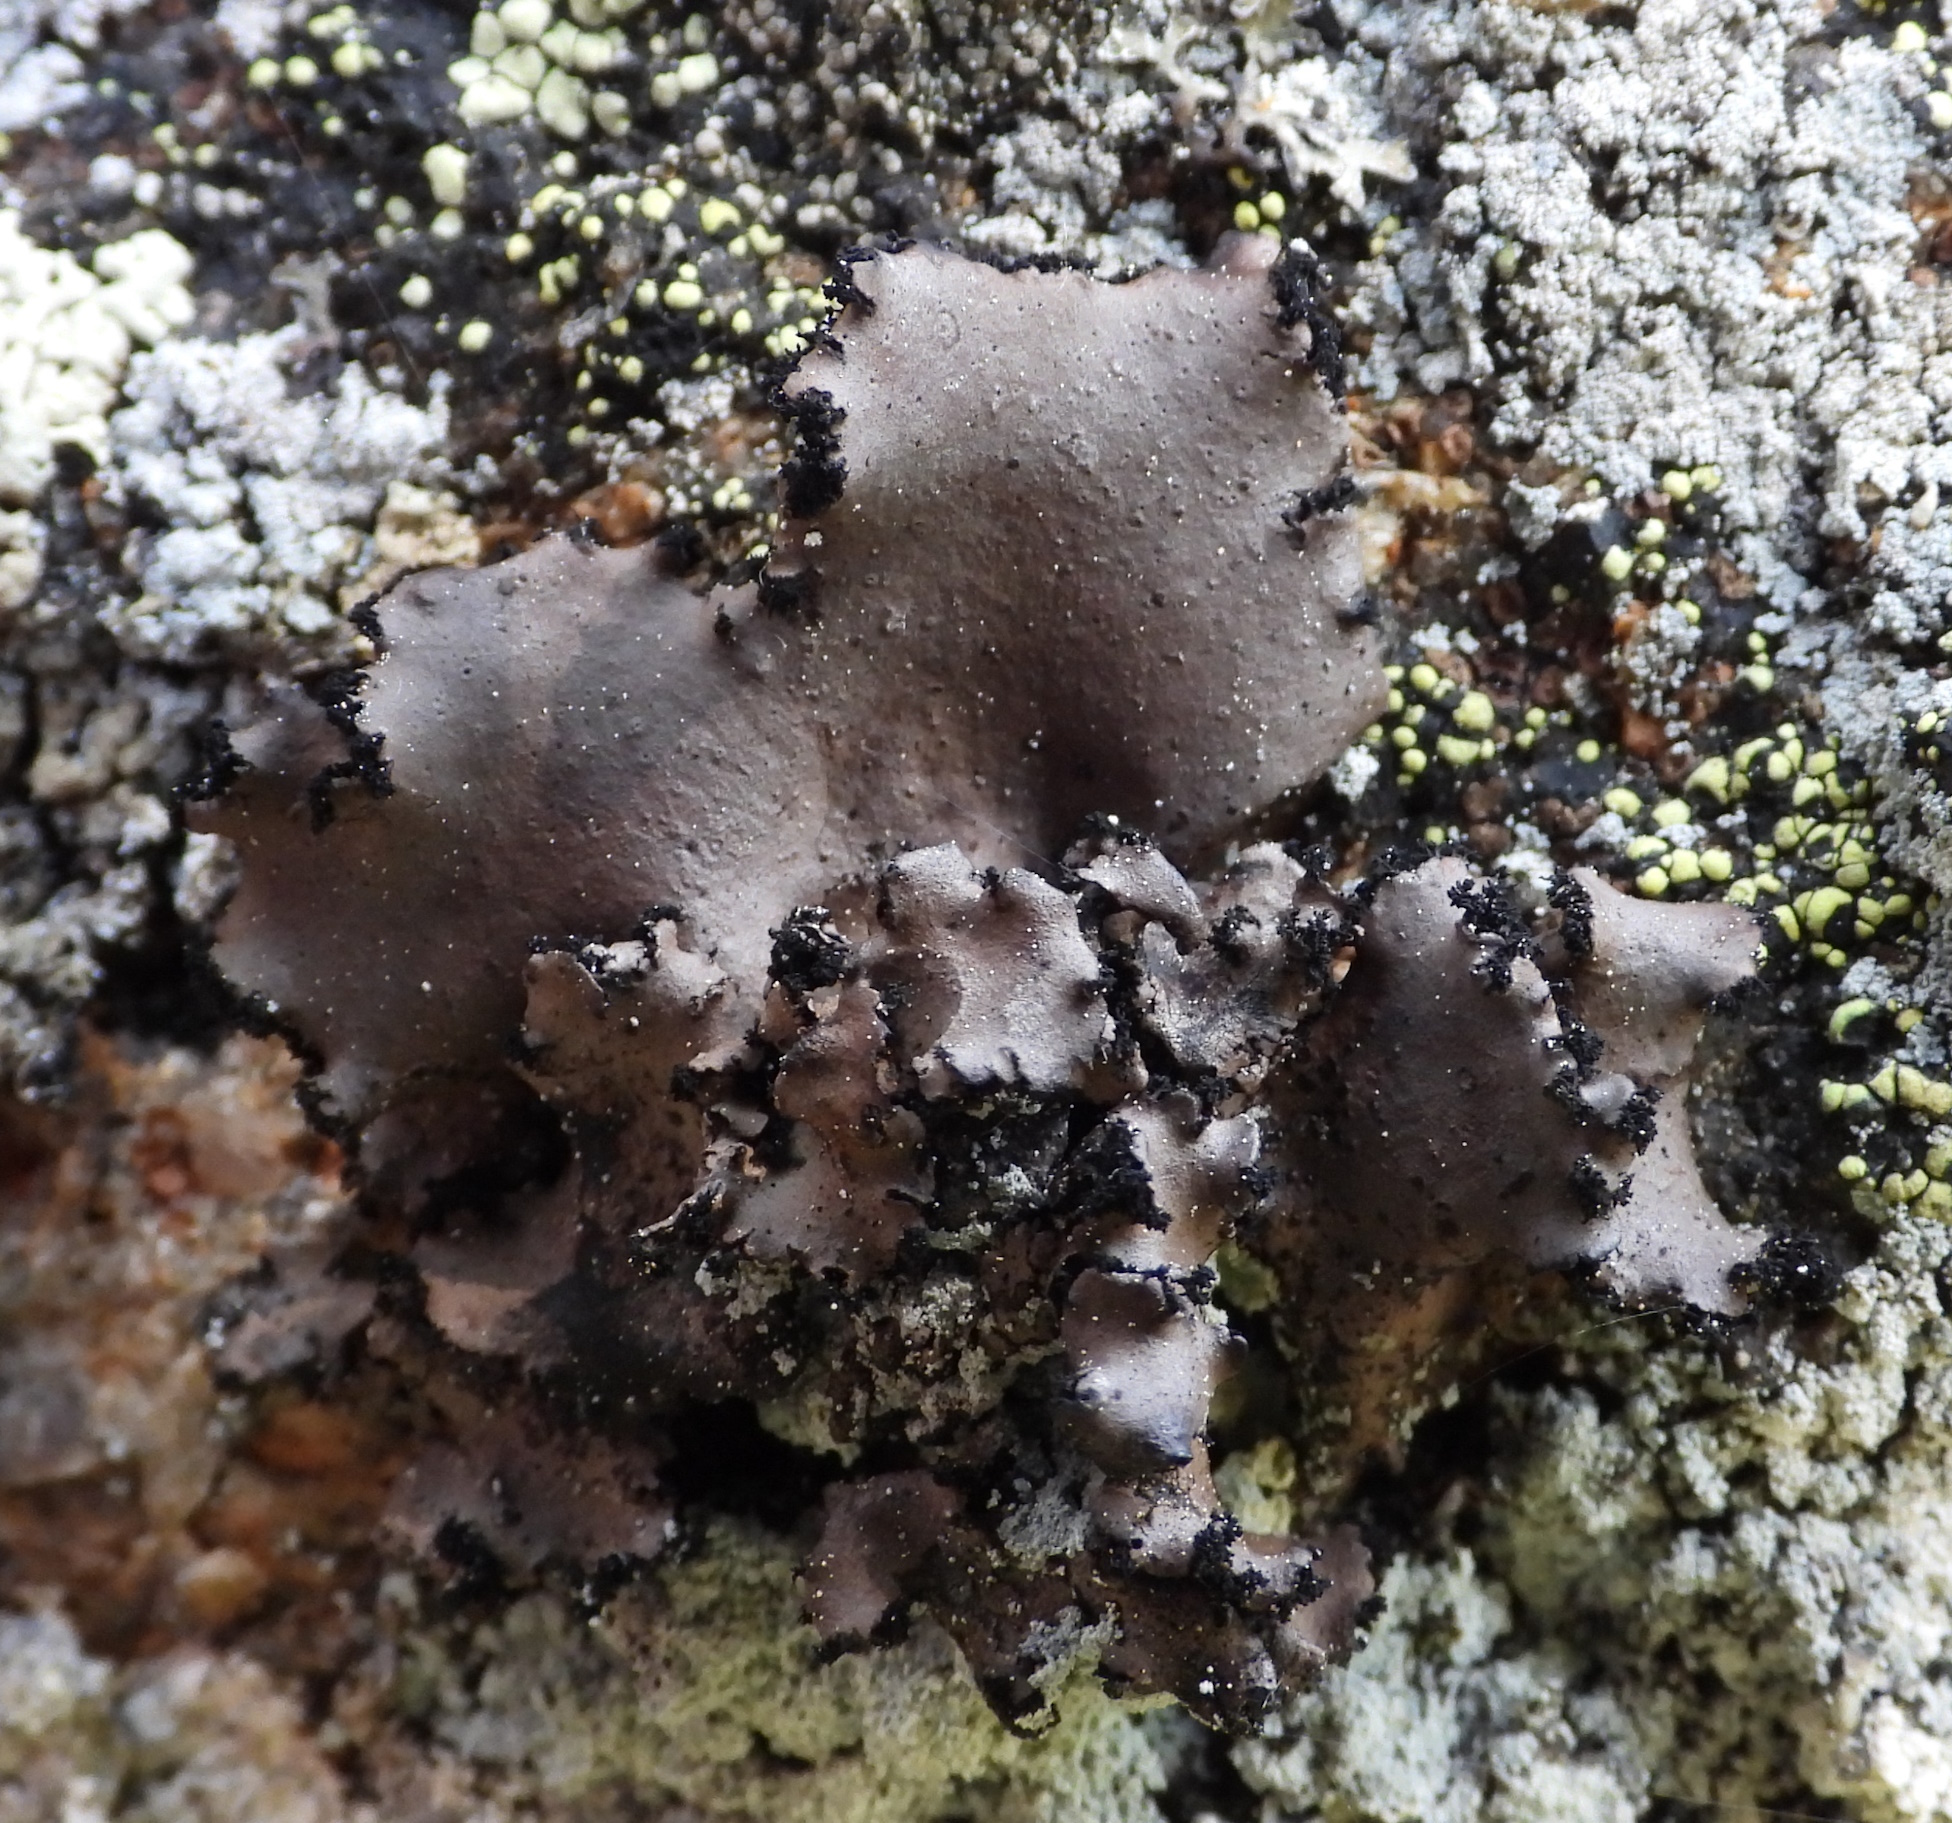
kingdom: Fungi
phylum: Ascomycota
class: Lecanoromycetes
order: Umbilicariales
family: Umbilicariaceae
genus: Umbilicaria
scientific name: Umbilicaria polyrrhiza
